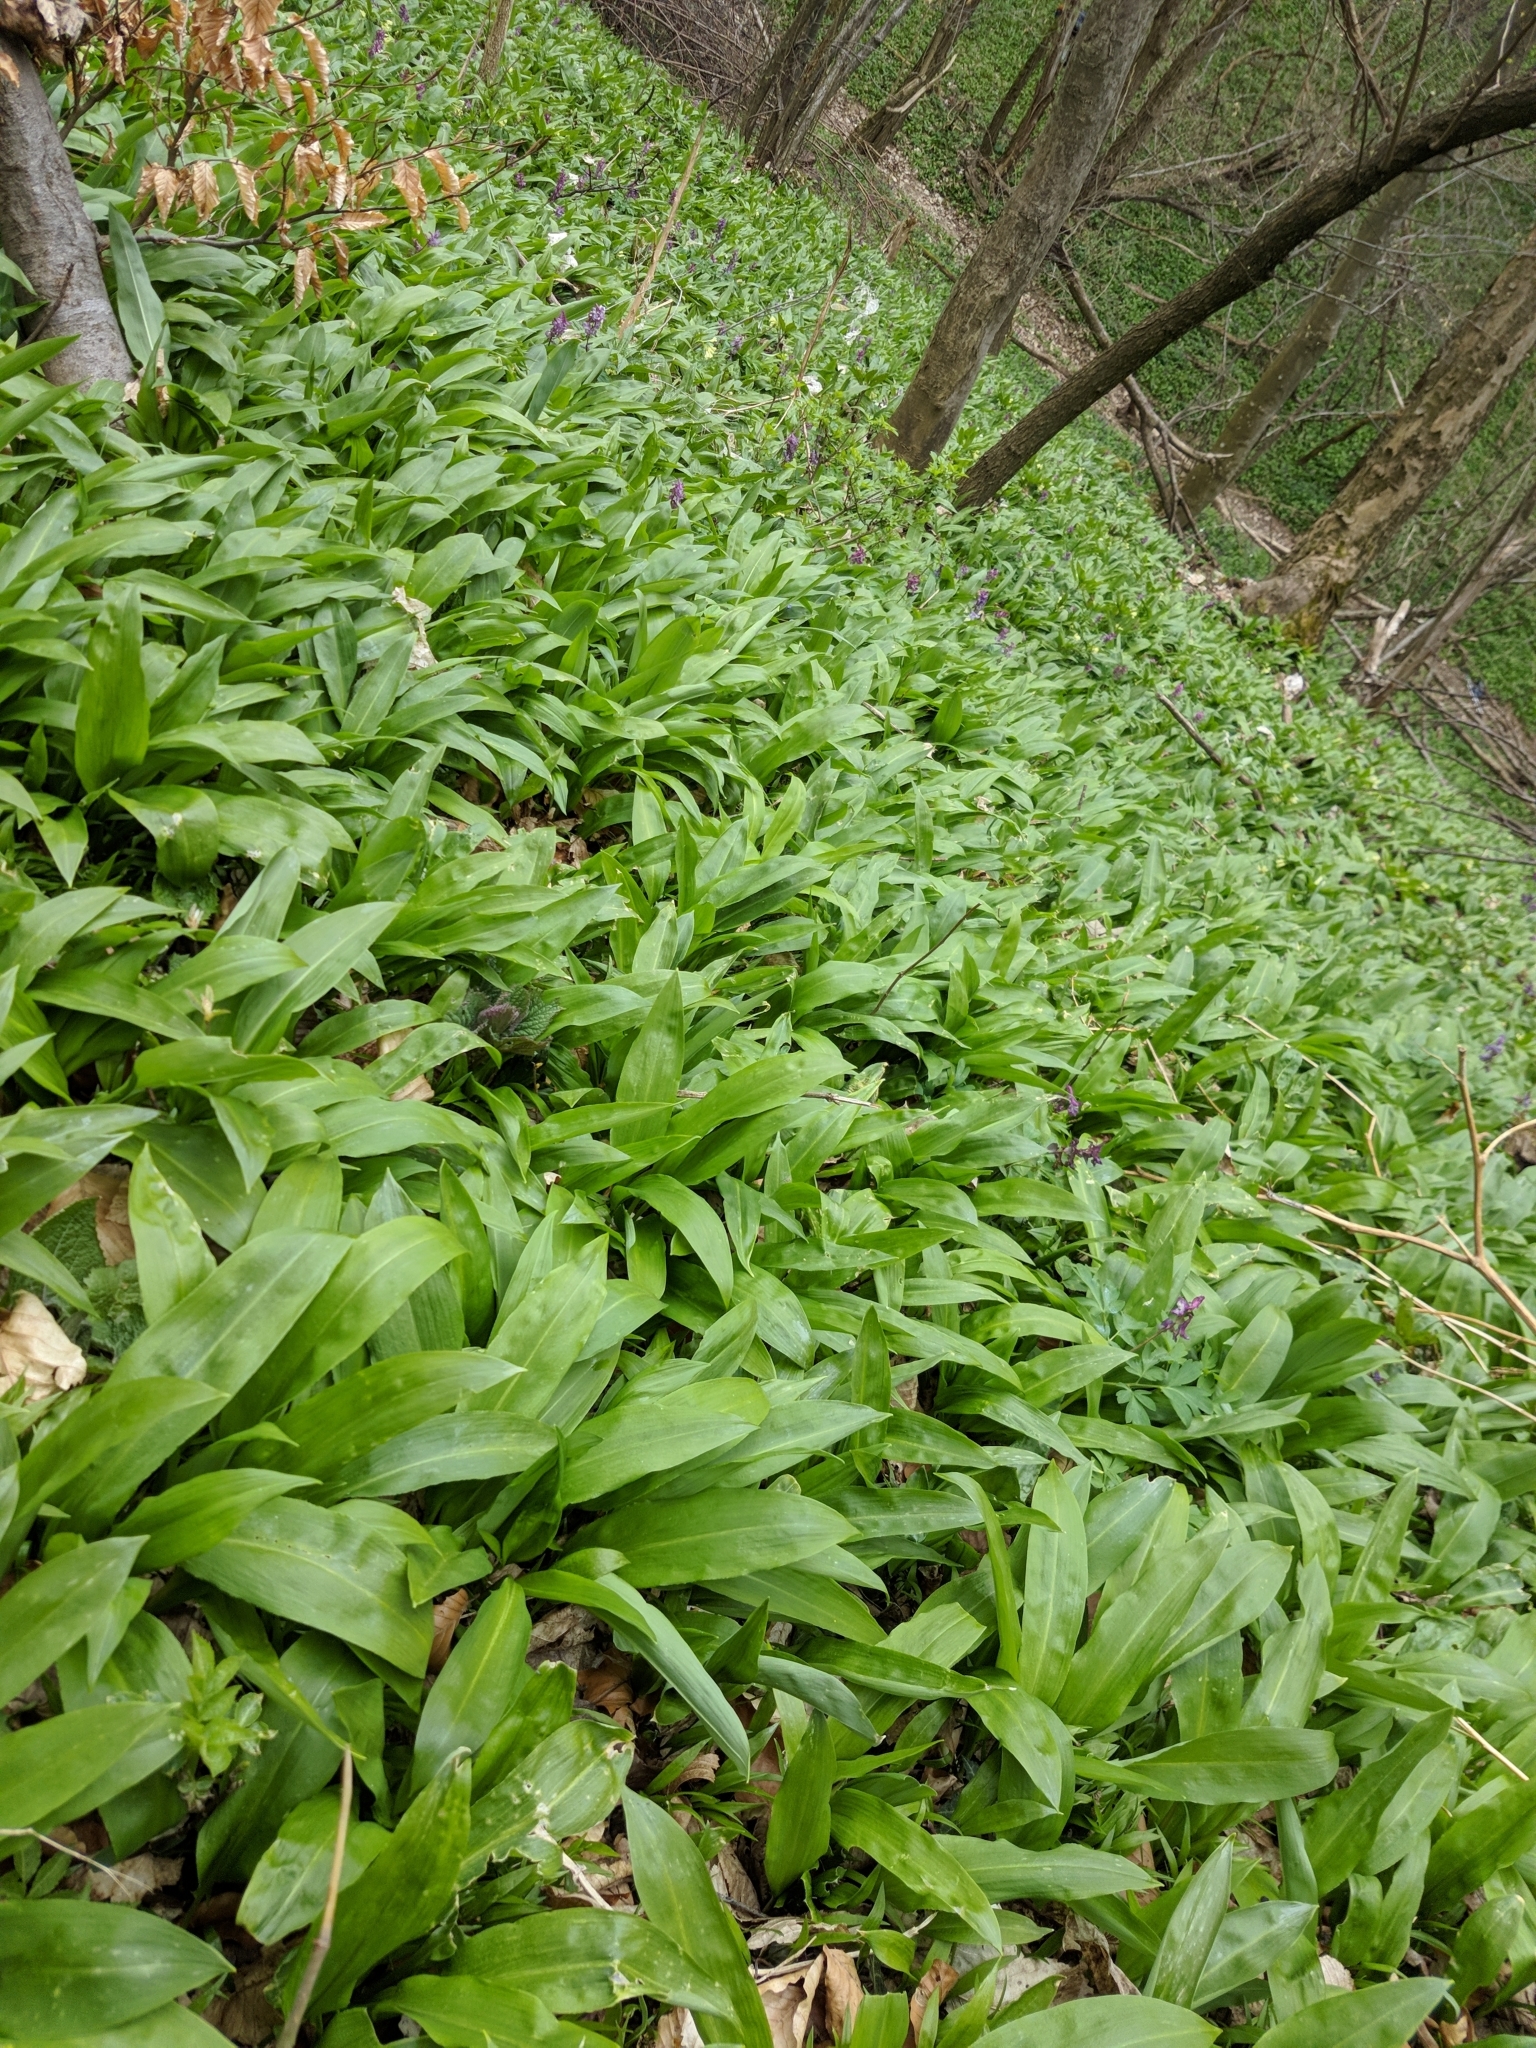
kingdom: Plantae
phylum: Tracheophyta
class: Liliopsida
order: Asparagales
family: Amaryllidaceae
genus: Allium
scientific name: Allium ursinum
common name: Ramsons
